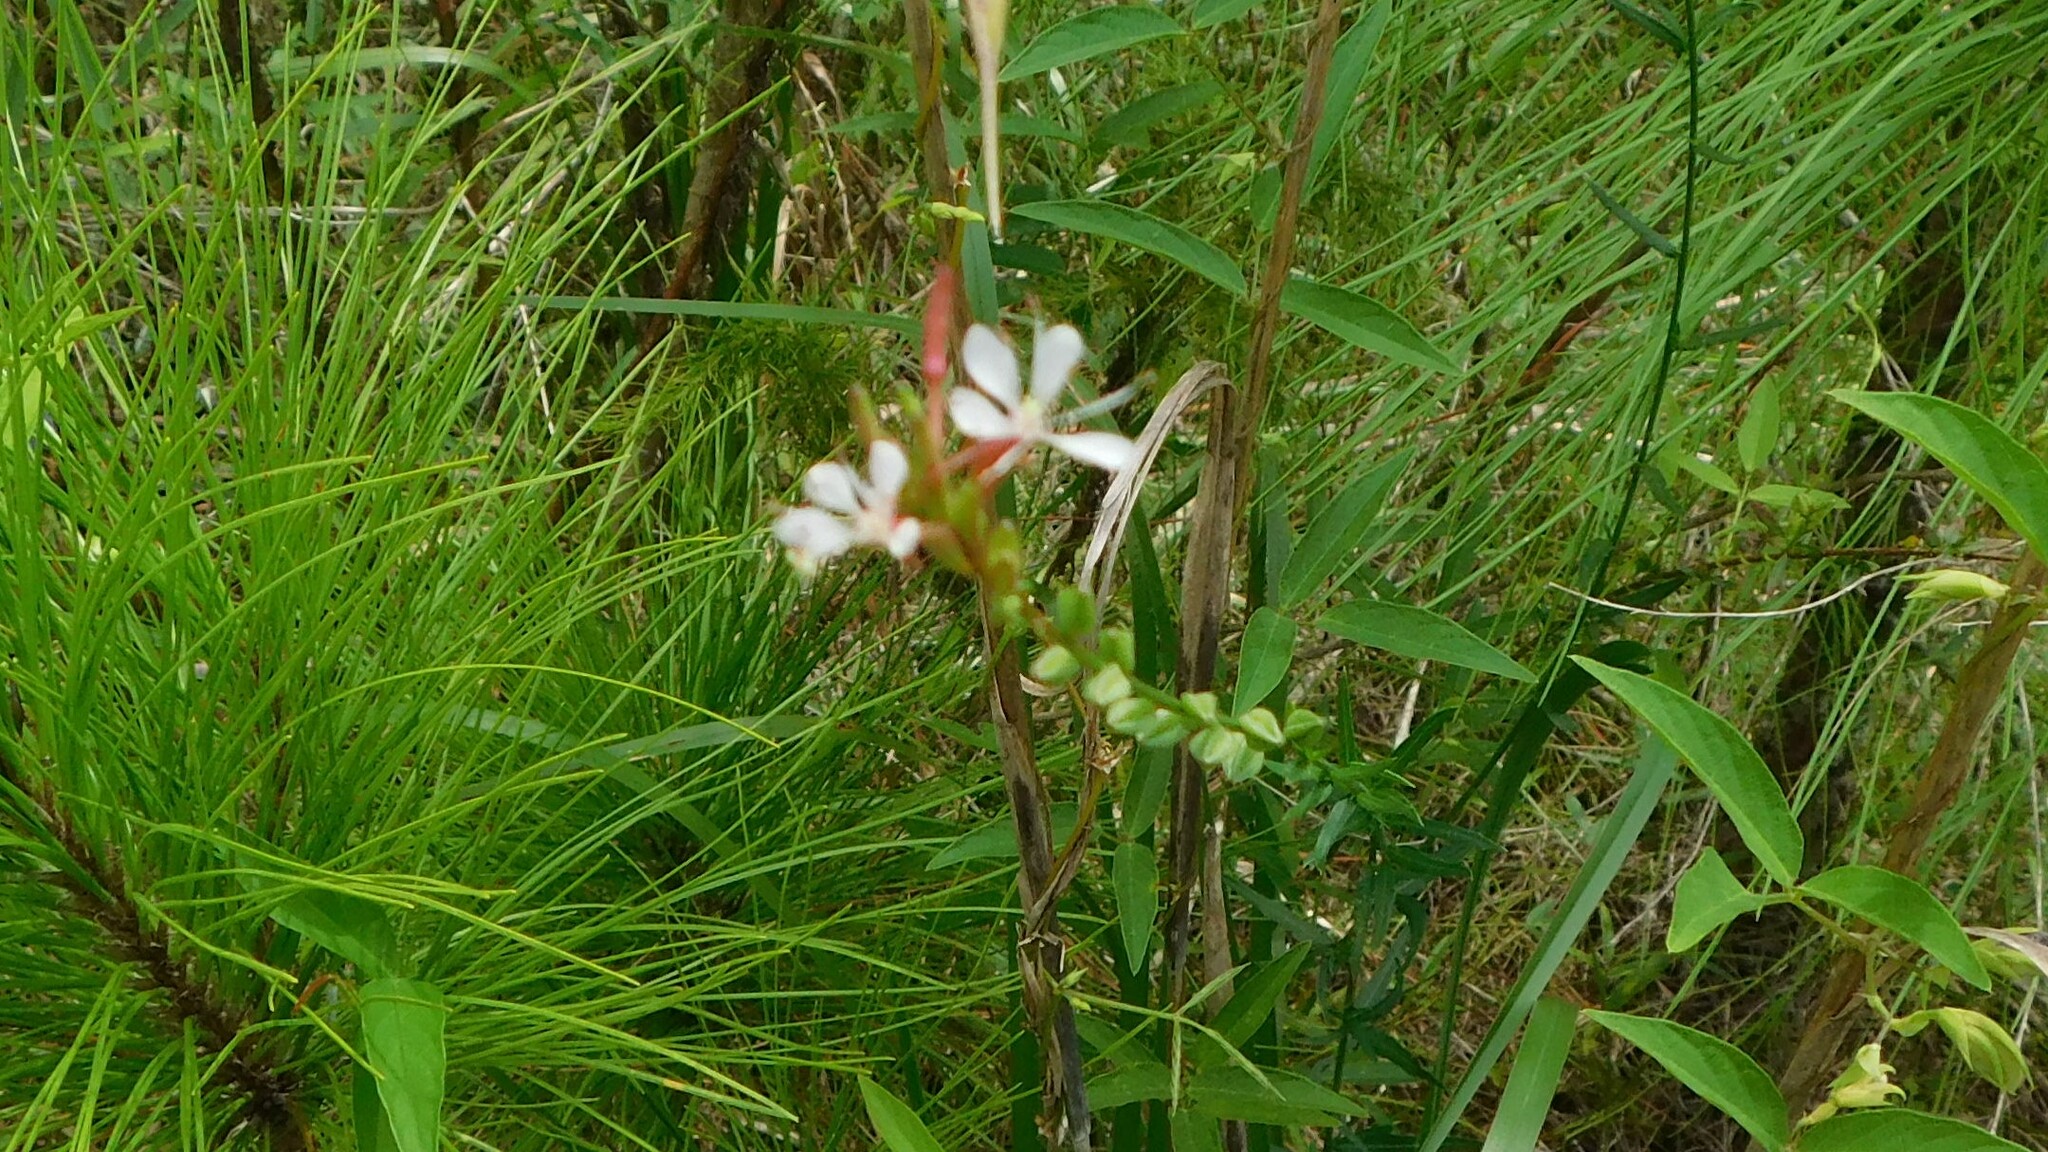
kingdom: Plantae
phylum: Tracheophyta
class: Magnoliopsida
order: Myrtales
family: Onagraceae
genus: Oenothera
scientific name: Oenothera simulans
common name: Southern beeblossom
